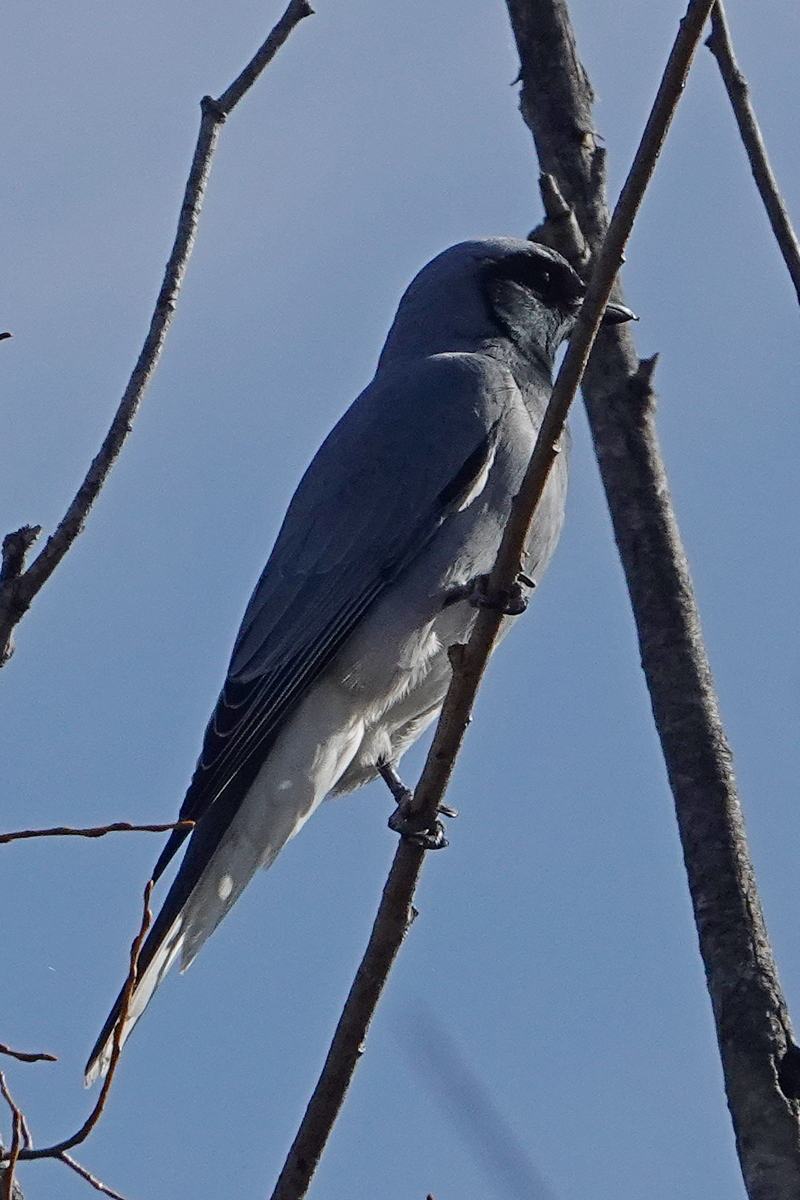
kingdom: Animalia
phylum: Chordata
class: Aves
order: Passeriformes
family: Campephagidae
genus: Coracina
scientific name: Coracina novaehollandiae
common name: Black-faced cuckooshrike
